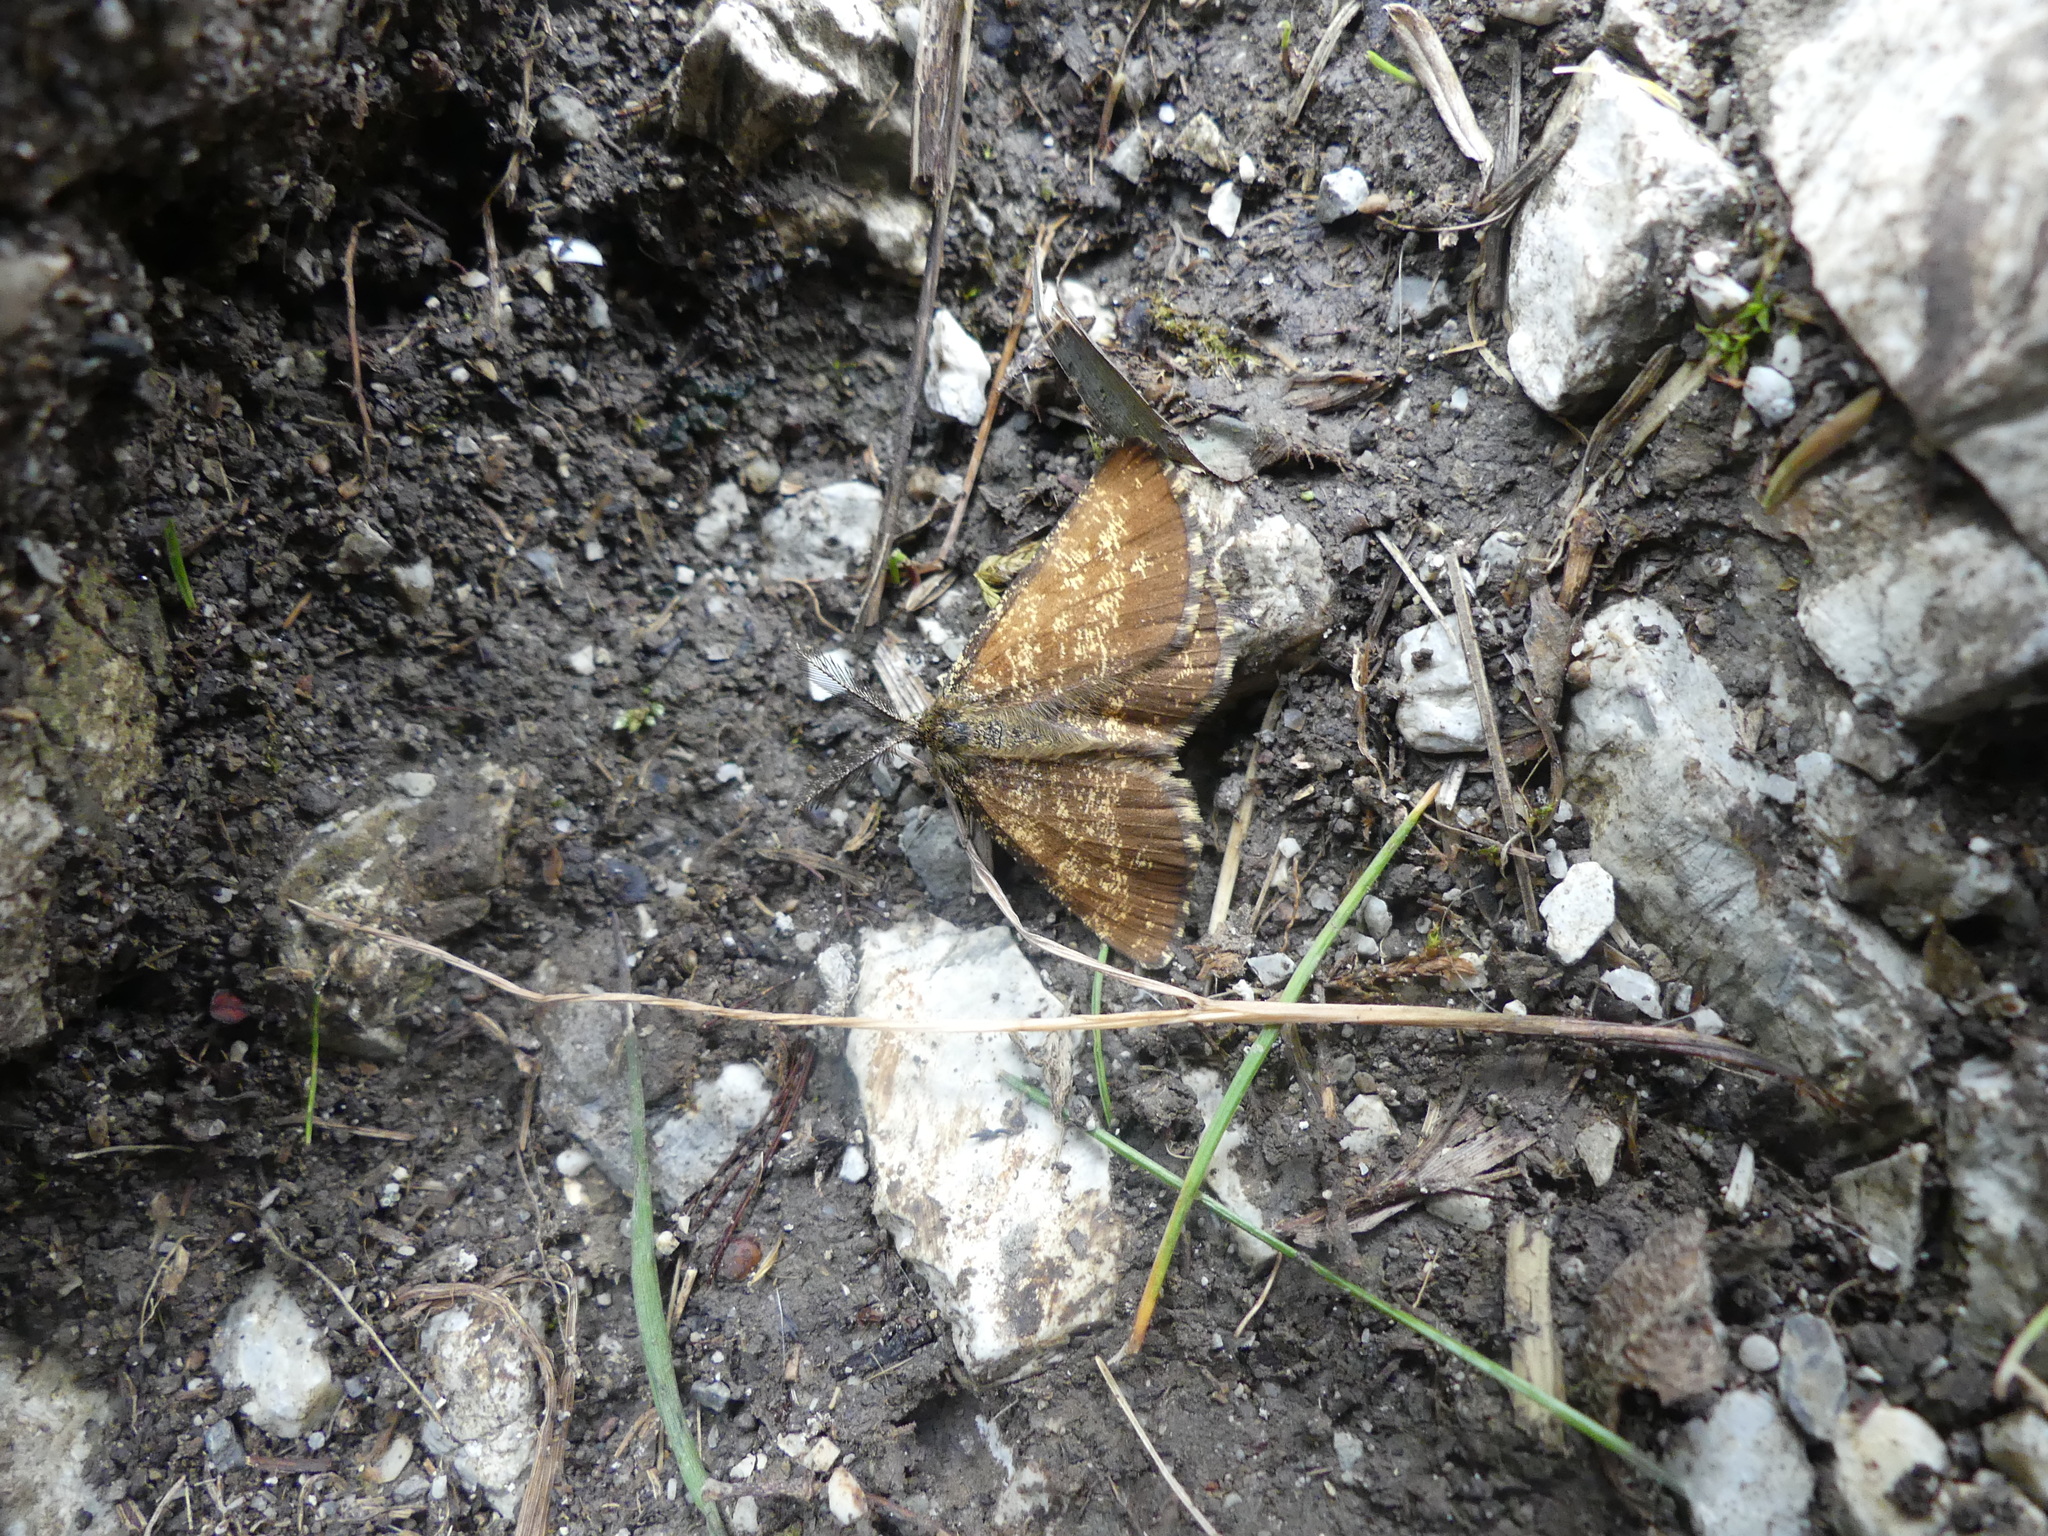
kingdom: Animalia
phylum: Arthropoda
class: Insecta
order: Lepidoptera
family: Geometridae
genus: Ematurga
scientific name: Ematurga atomaria
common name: Common heath
